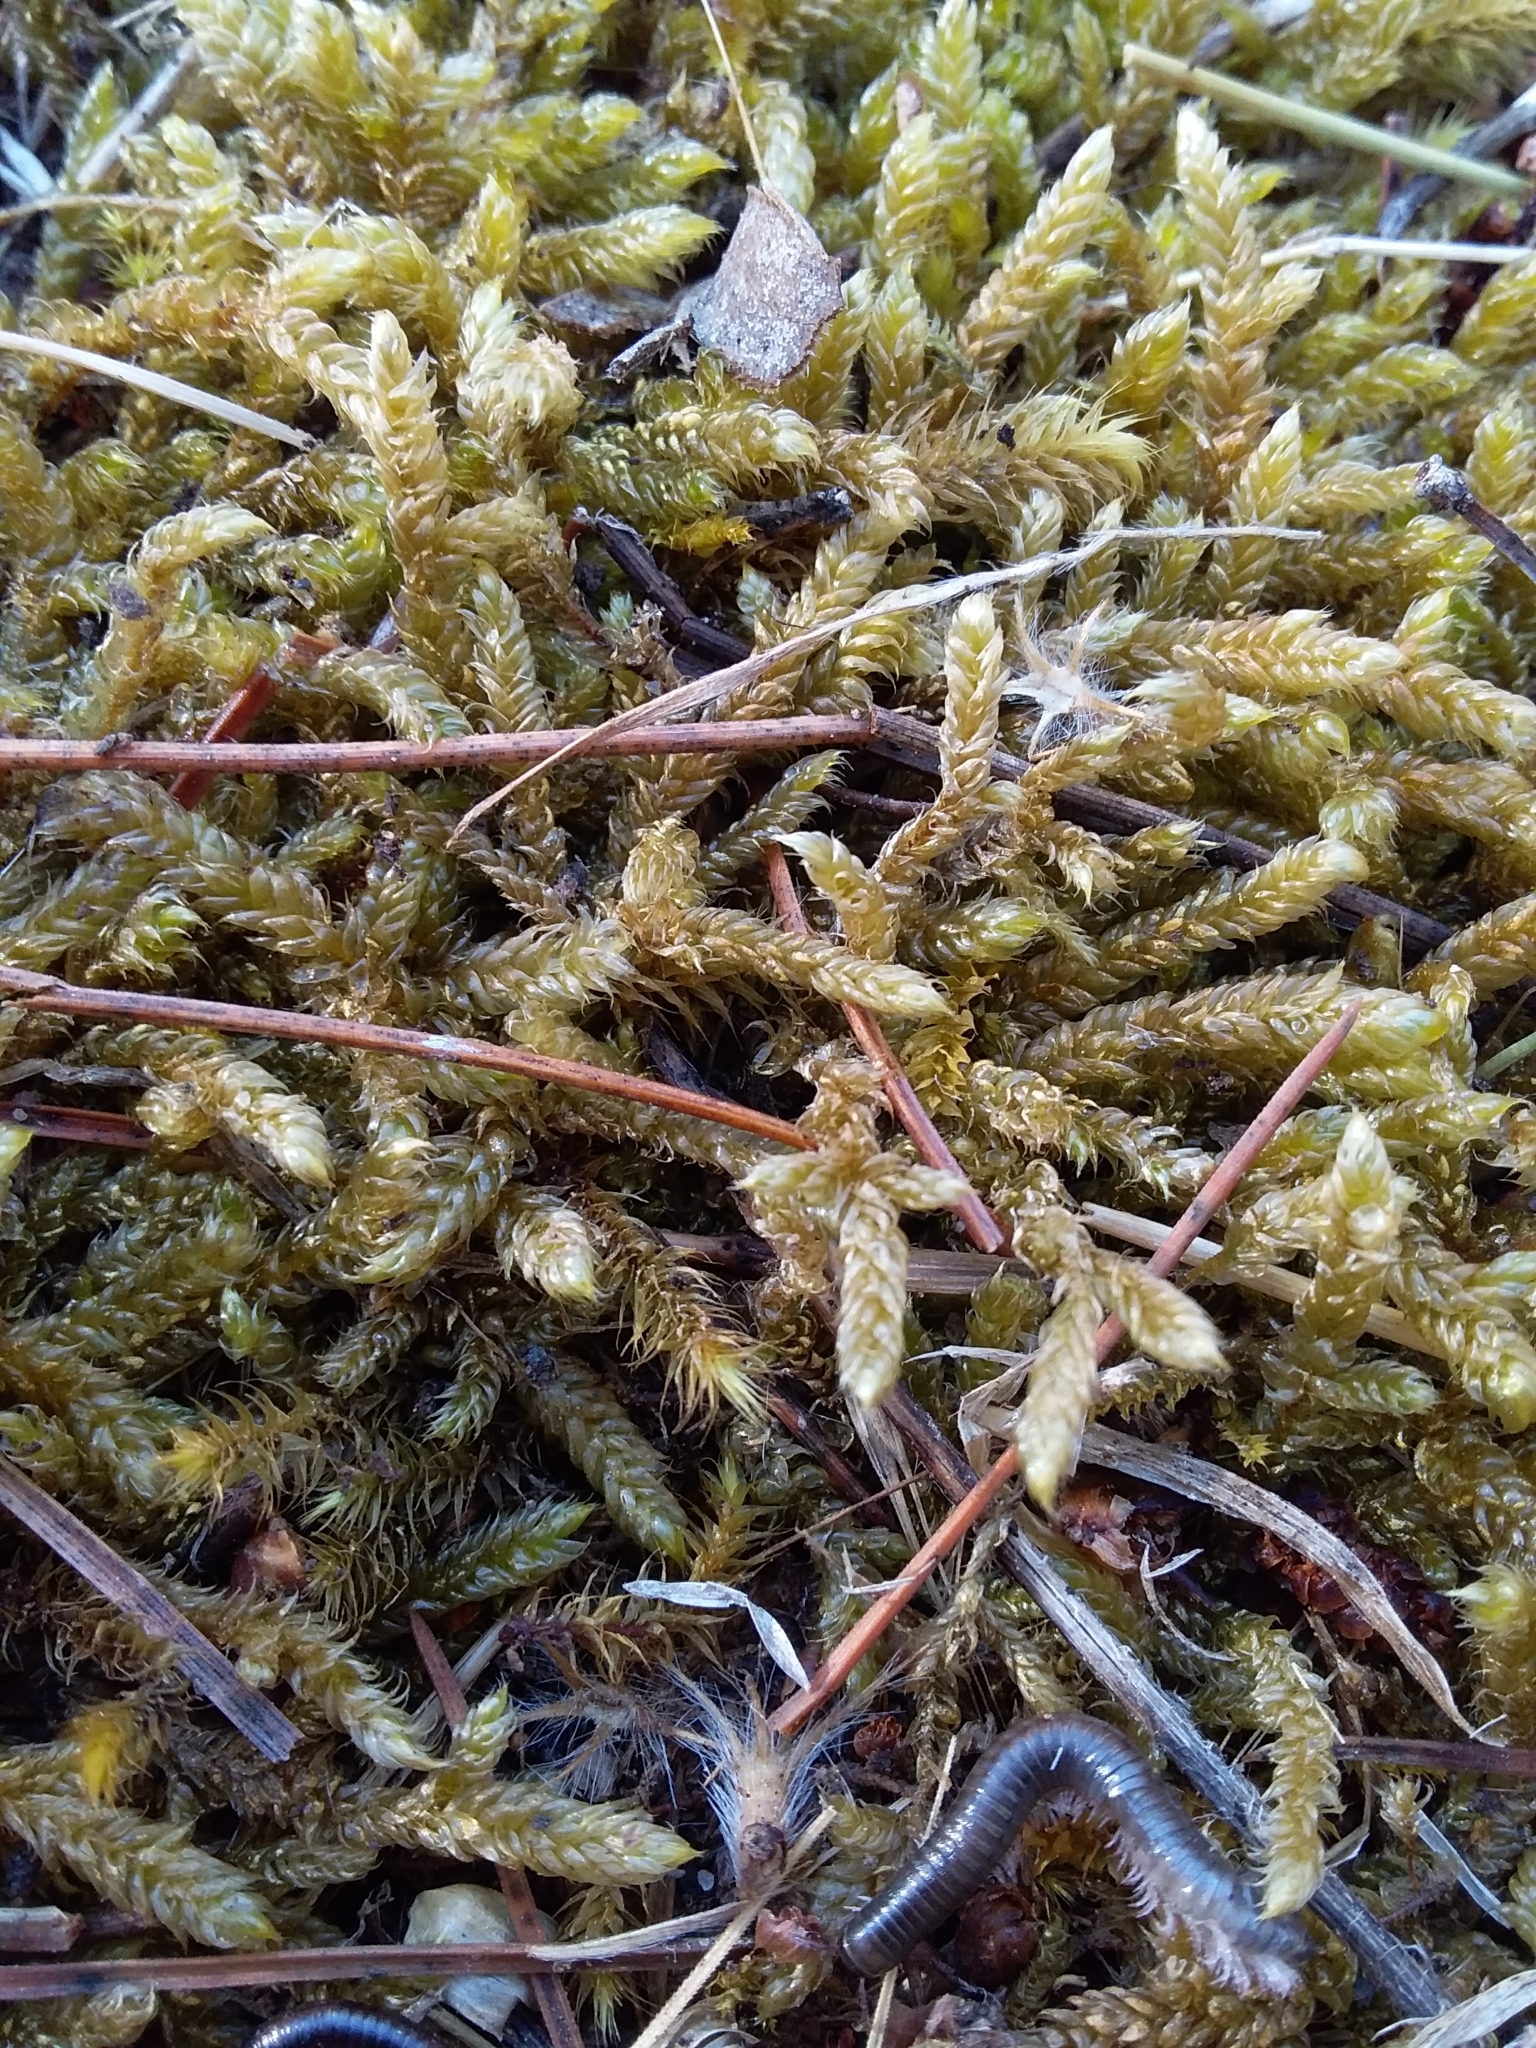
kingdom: Plantae
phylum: Bryophyta
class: Bryopsida
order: Hypnales
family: Hypnaceae
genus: Hypnum
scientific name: Hypnum cupressiforme
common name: Cypress-leaved plait-moss
